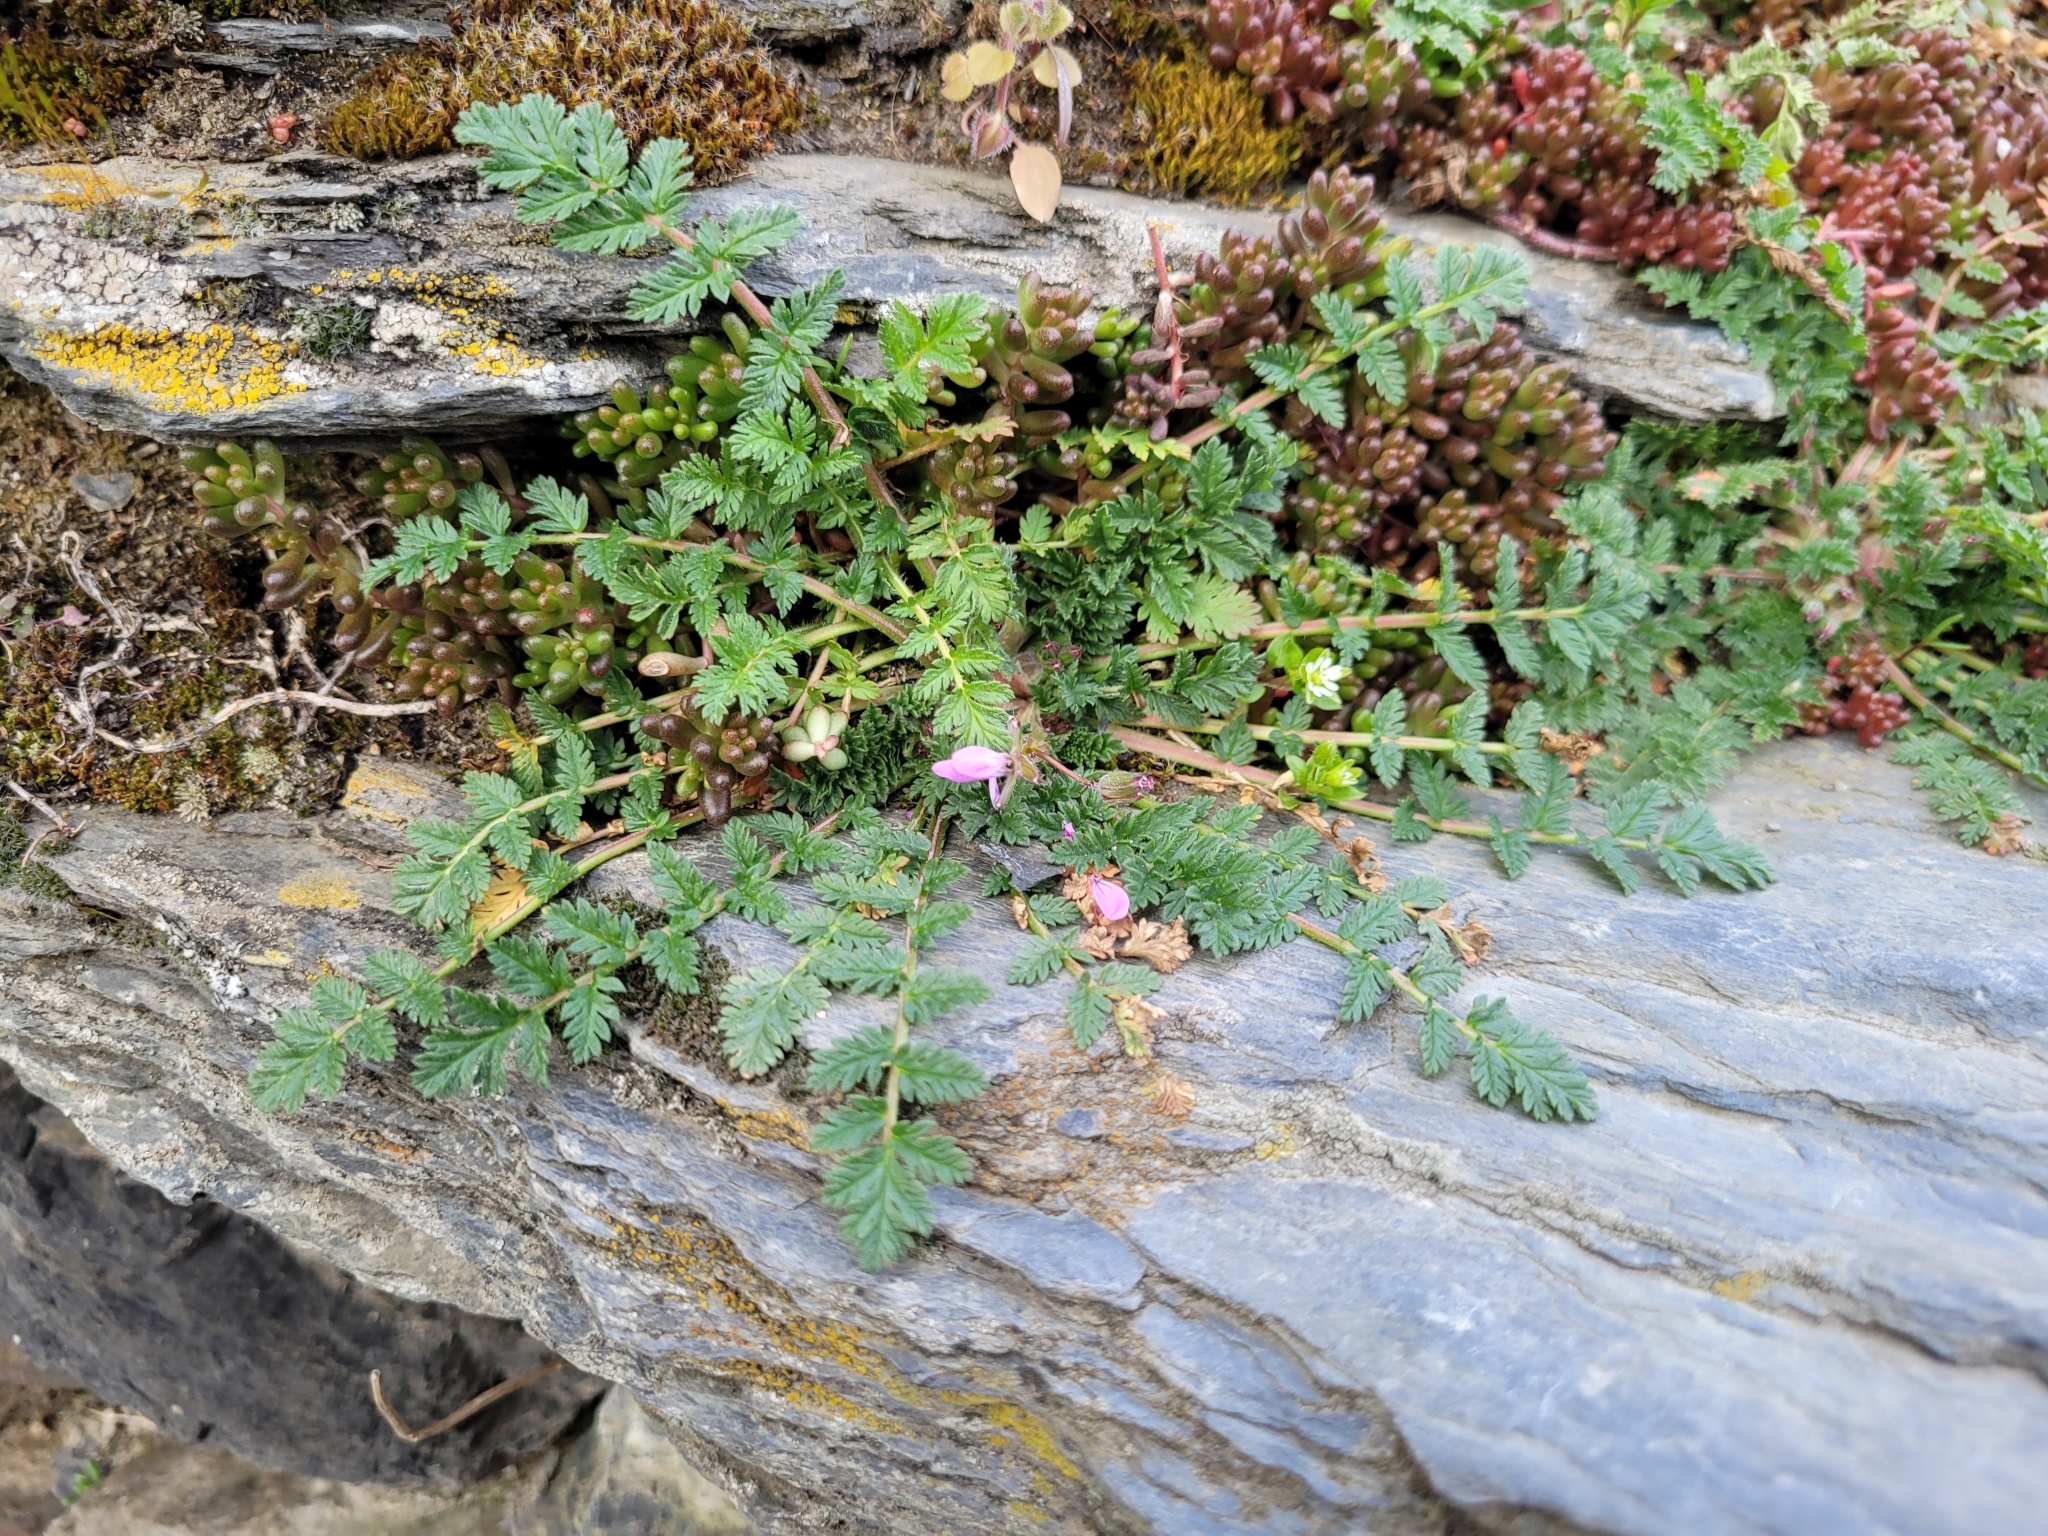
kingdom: Plantae
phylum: Tracheophyta
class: Magnoliopsida
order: Geraniales
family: Geraniaceae
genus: Erodium
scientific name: Erodium cicutarium
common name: Common stork's-bill
